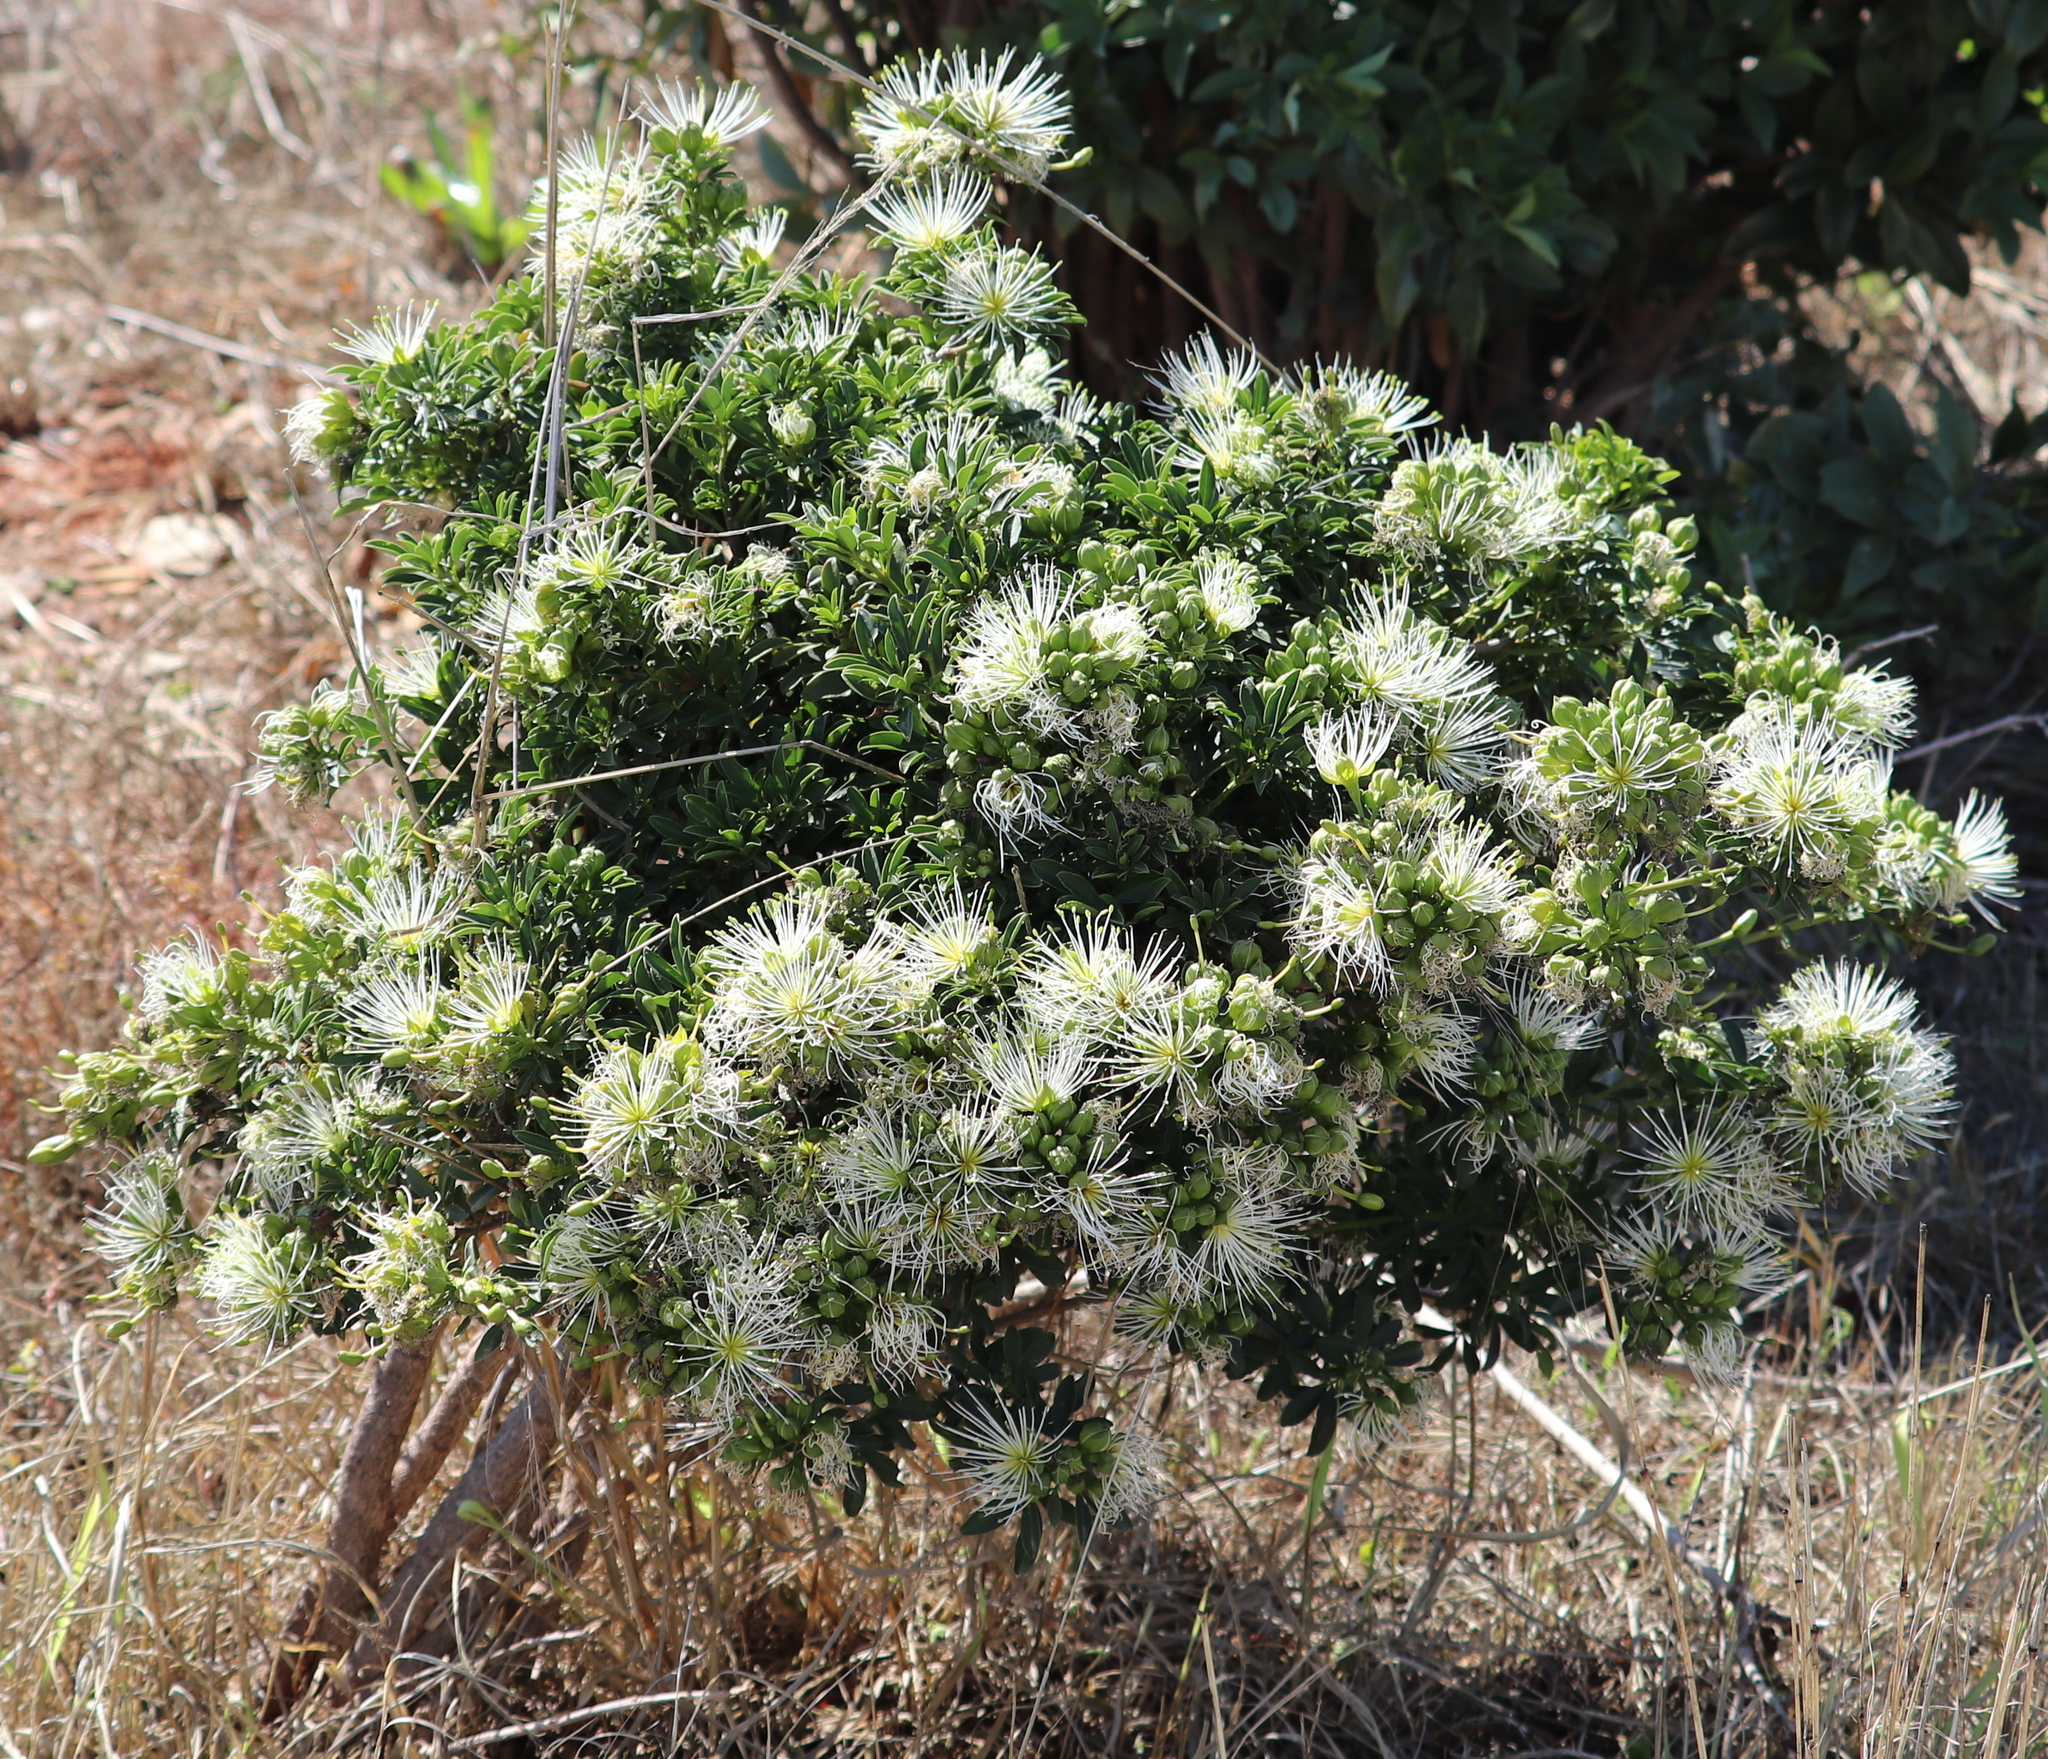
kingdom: Plantae
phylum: Tracheophyta
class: Magnoliopsida
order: Brassicales
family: Capparaceae
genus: Maerua
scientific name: Maerua cafra
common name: Bush maerua
